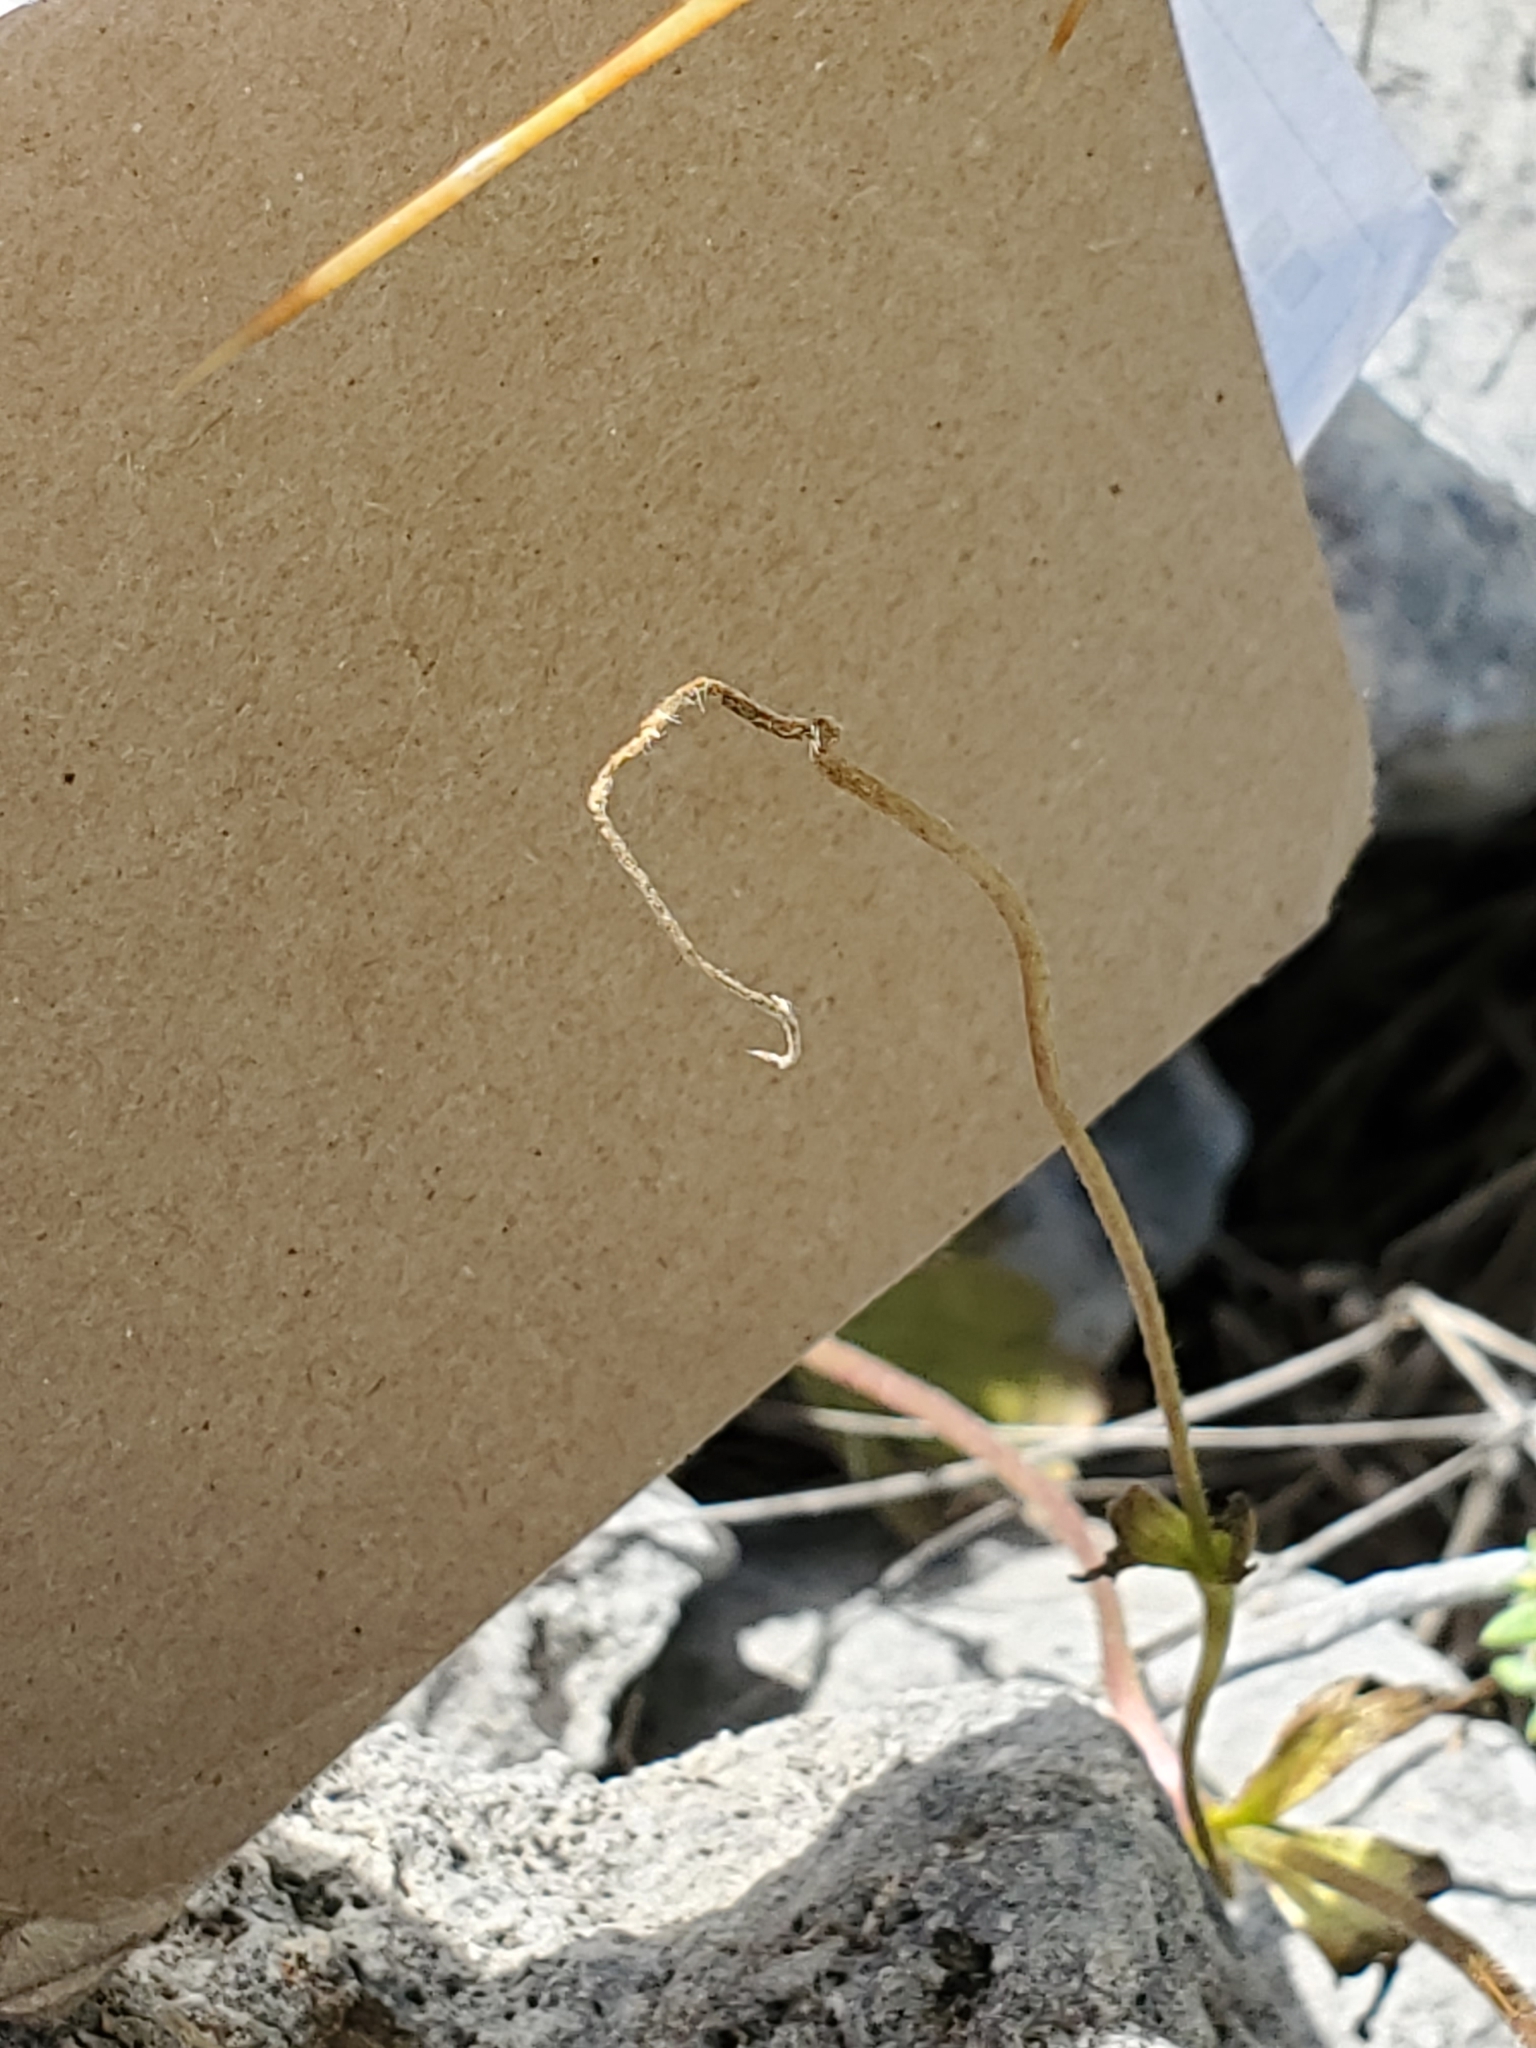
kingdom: Plantae
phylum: Tracheophyta
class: Magnoliopsida
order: Ranunculales
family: Ranunculaceae
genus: Anemone
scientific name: Anemone edwardsiana
